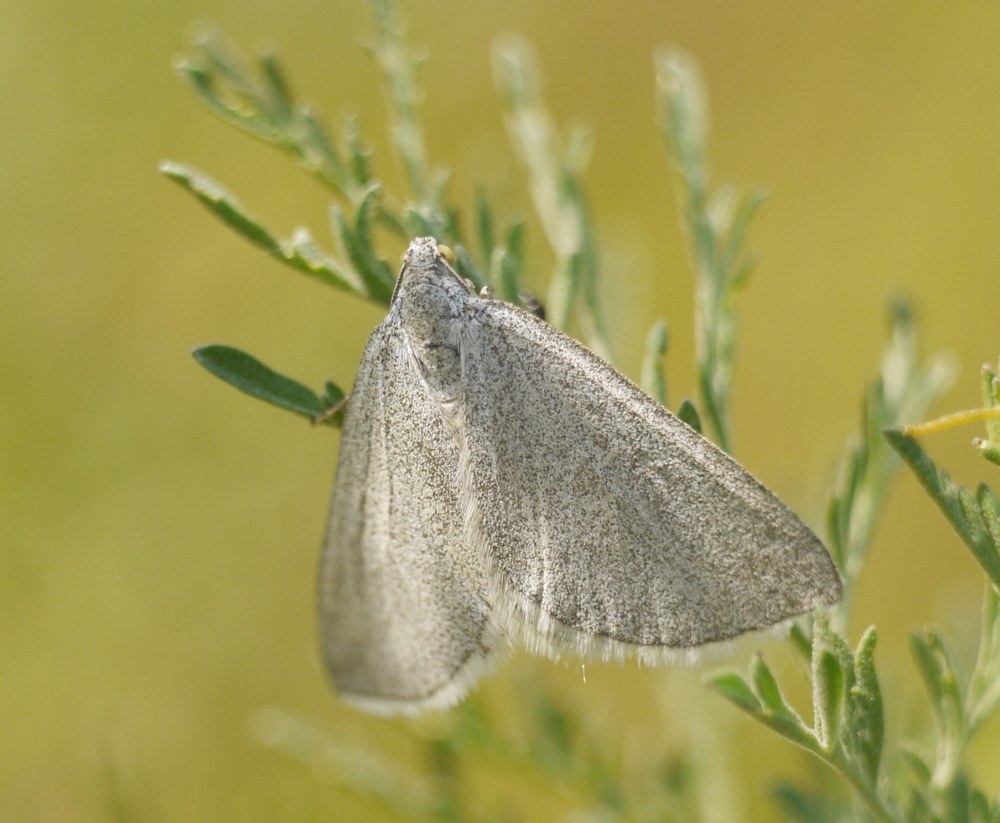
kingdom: Animalia
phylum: Arthropoda
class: Insecta
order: Lepidoptera
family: Geometridae
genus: Lithostege
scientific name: Lithostege griseata
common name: Grey carpet
